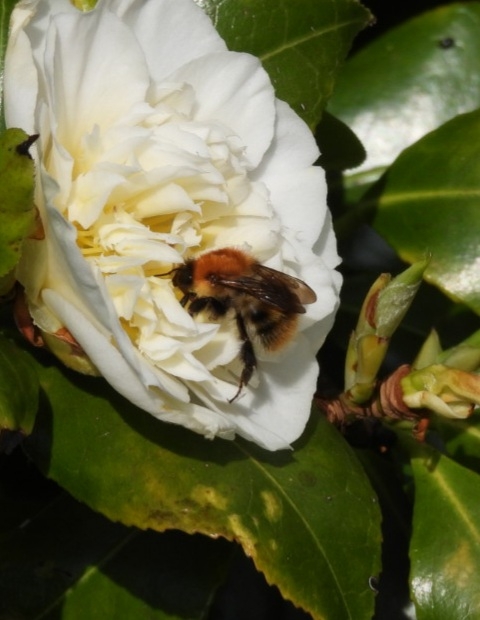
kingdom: Animalia
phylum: Arthropoda
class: Insecta
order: Hymenoptera
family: Apidae
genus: Bombus
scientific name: Bombus pascuorum
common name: Common carder bee
